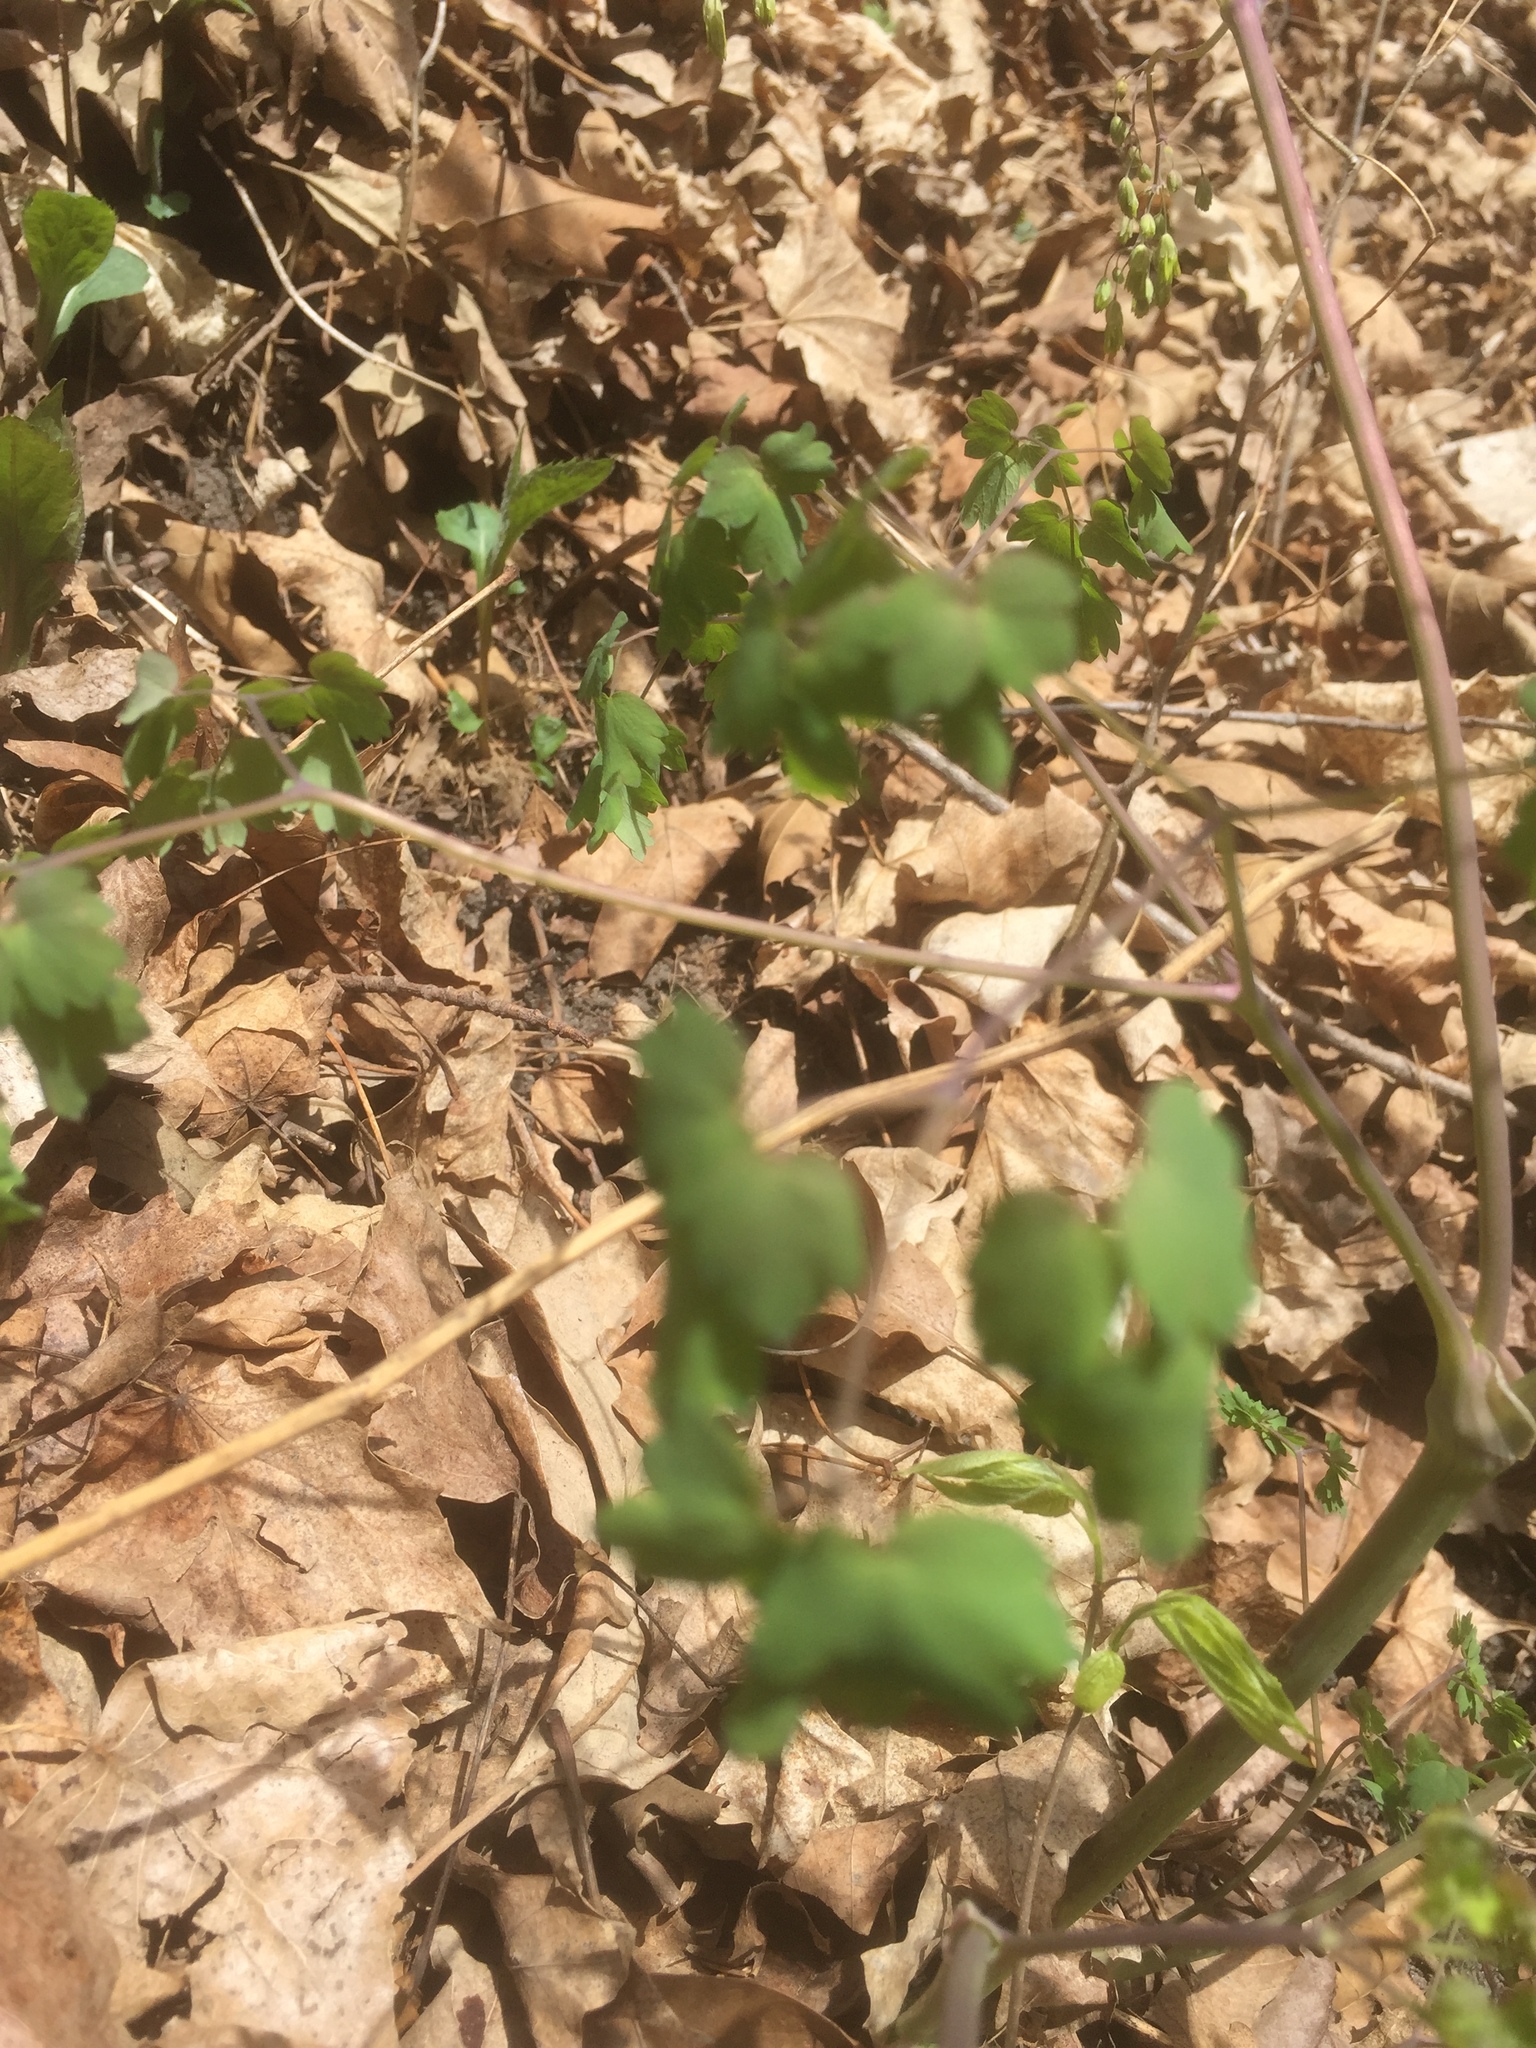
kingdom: Plantae
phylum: Tracheophyta
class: Magnoliopsida
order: Ranunculales
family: Ranunculaceae
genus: Thalictrum
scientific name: Thalictrum dioicum
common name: Early meadow-rue
